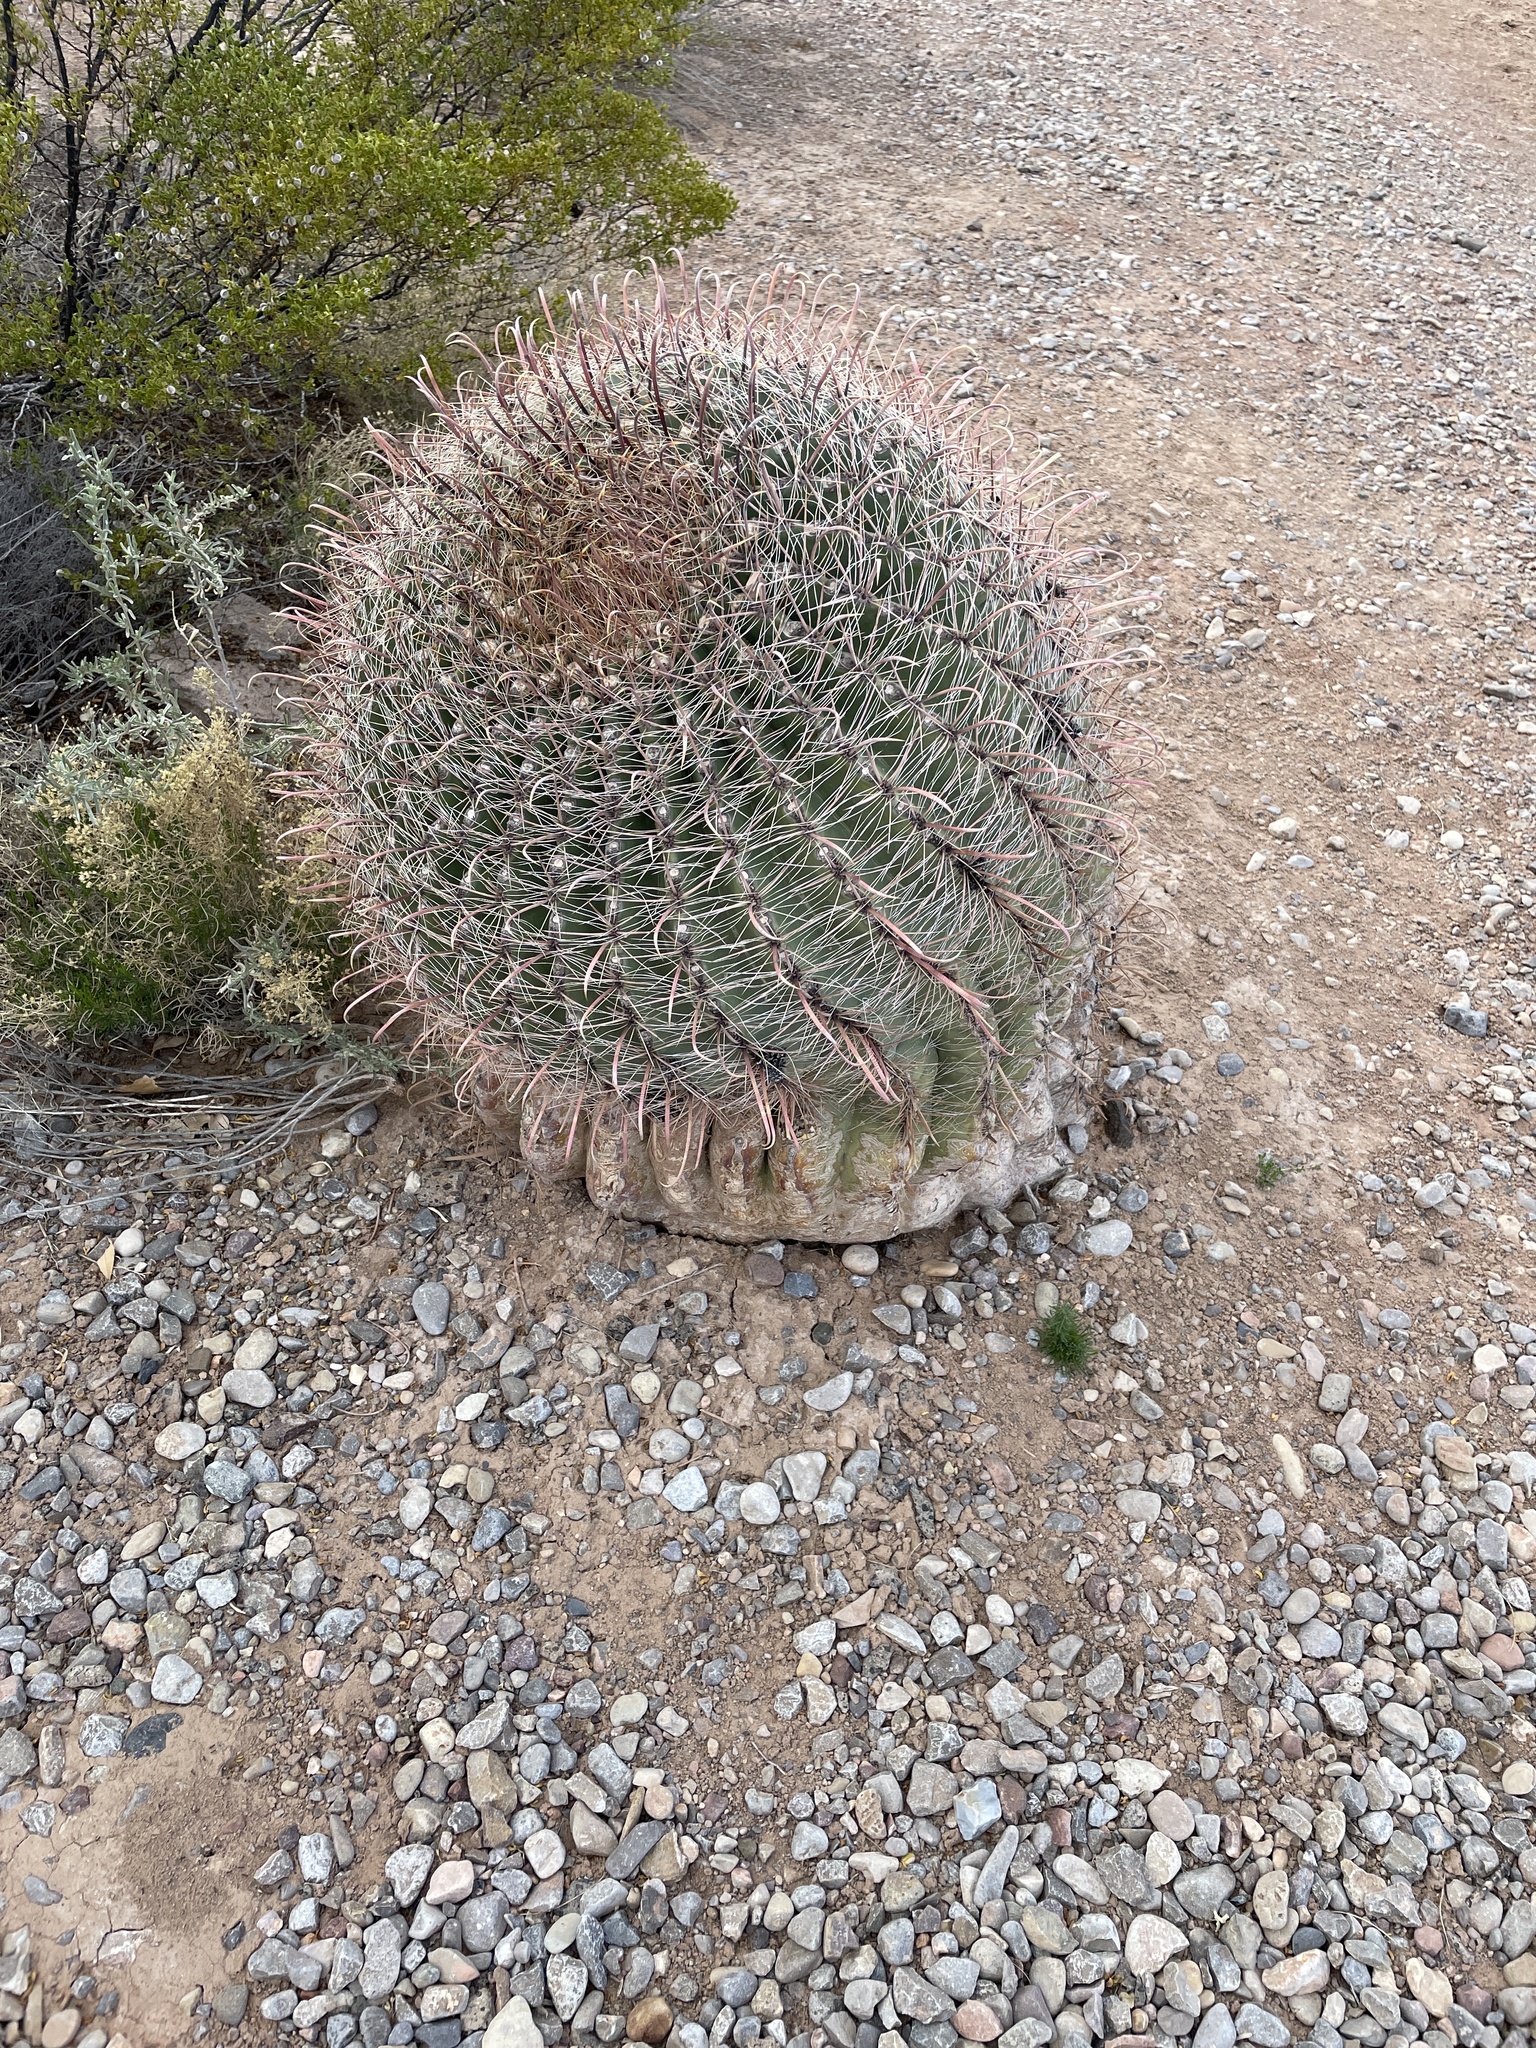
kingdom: Plantae
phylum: Tracheophyta
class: Magnoliopsida
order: Caryophyllales
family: Cactaceae
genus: Ferocactus
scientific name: Ferocactus wislizeni
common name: Candy barrel cactus
